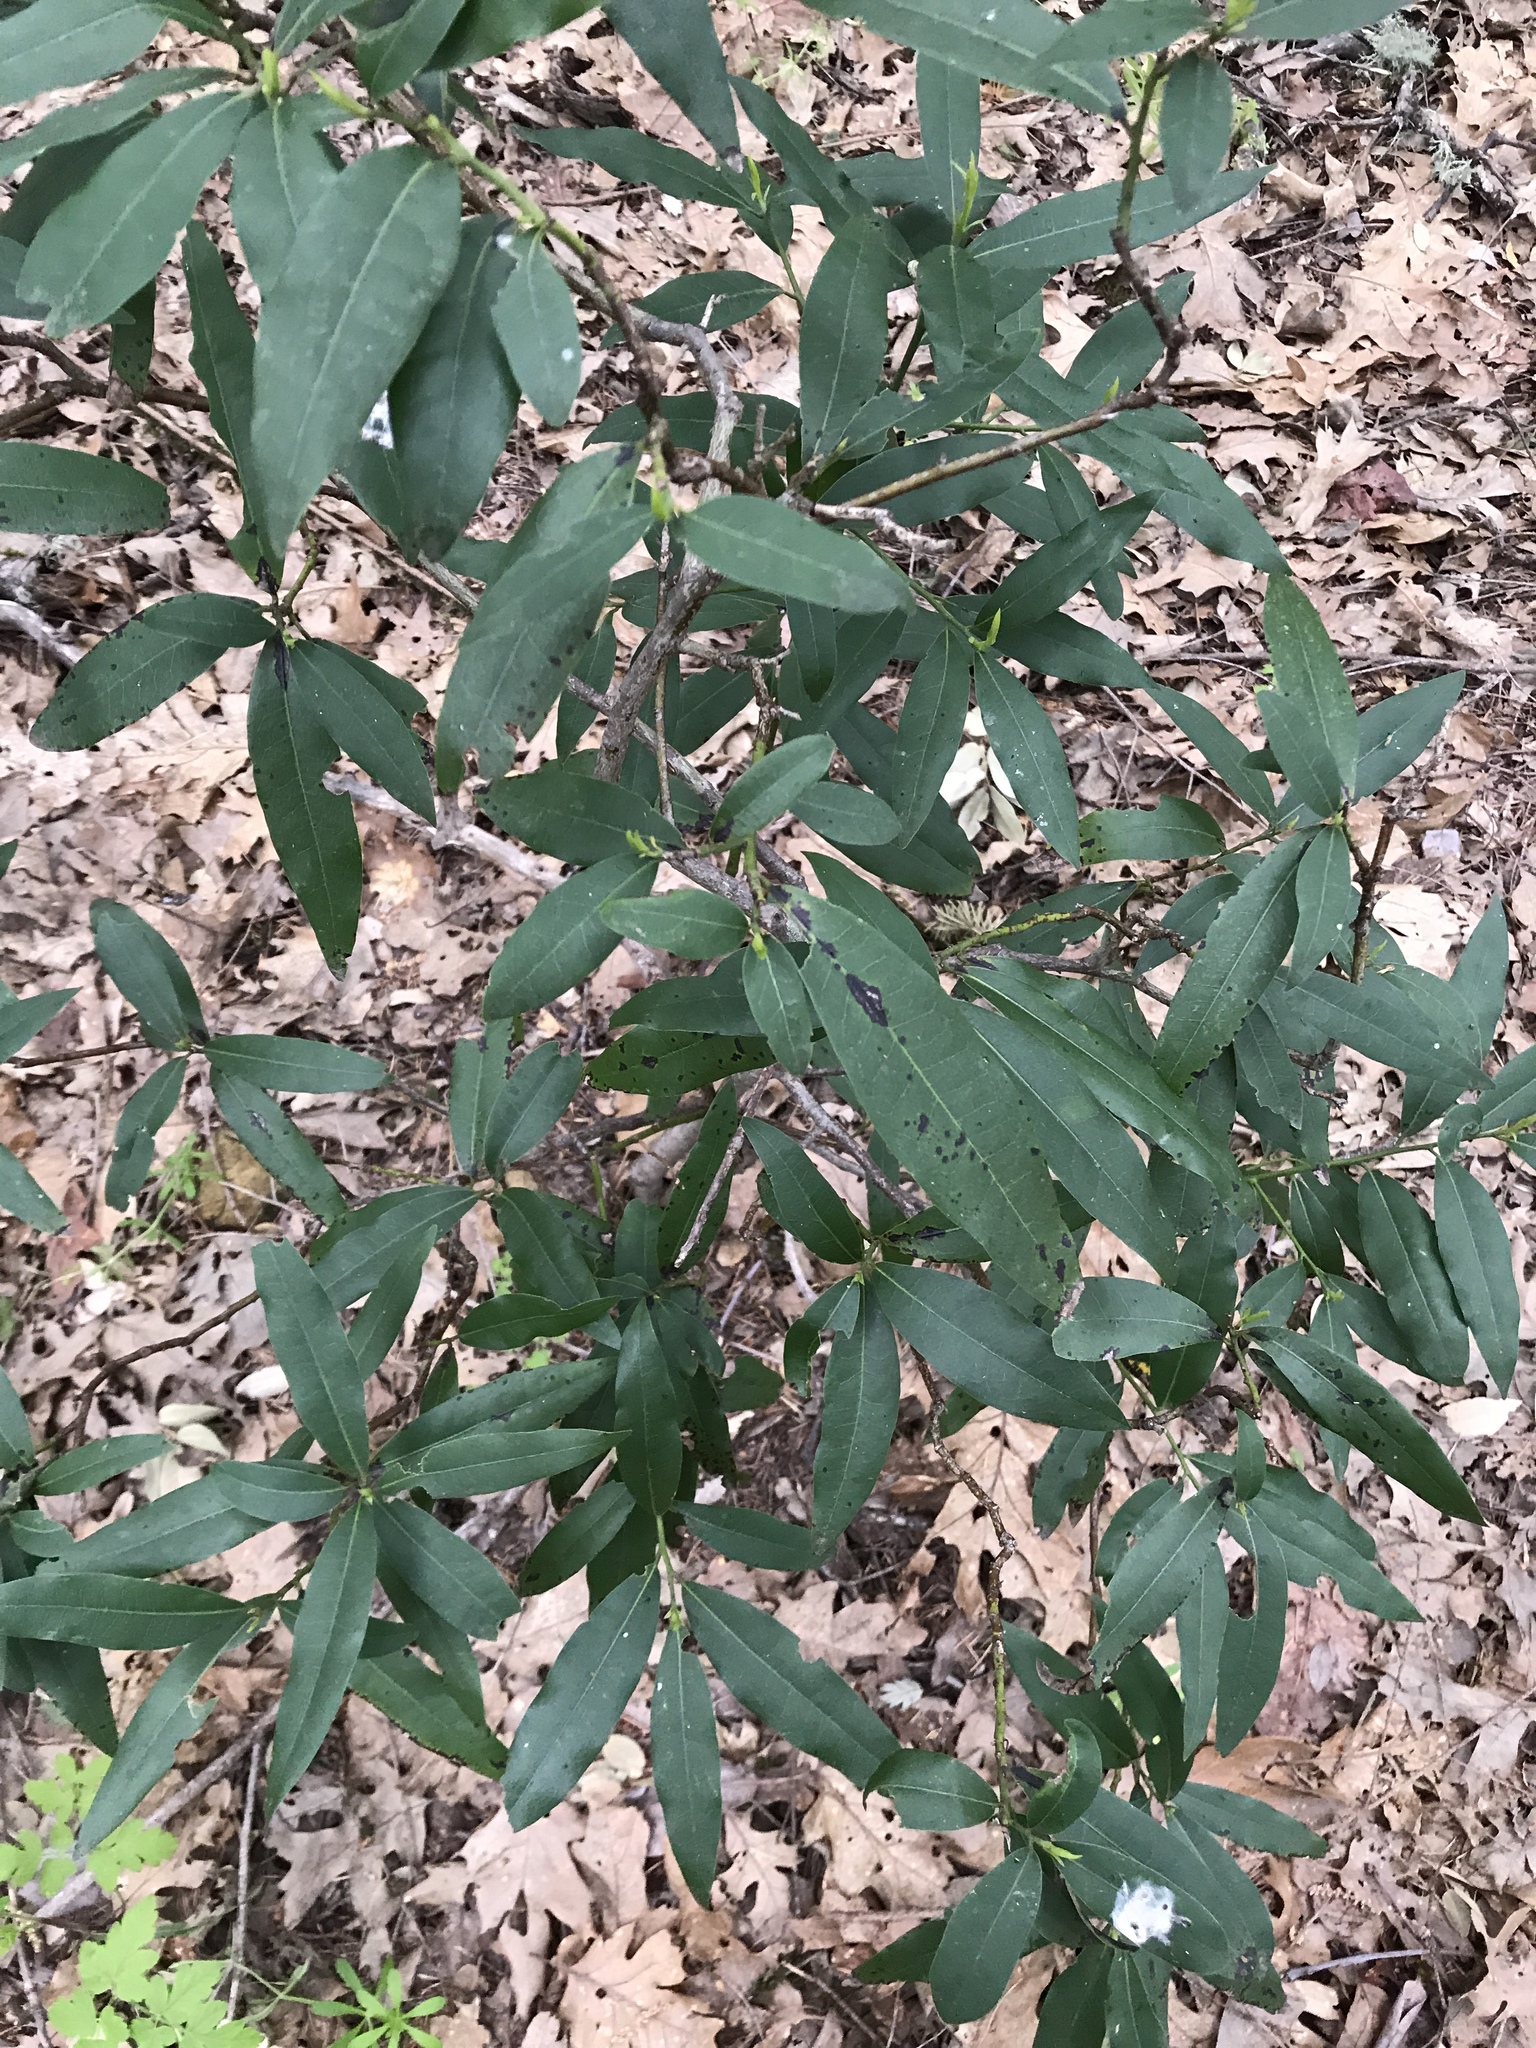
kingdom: Plantae
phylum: Tracheophyta
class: Magnoliopsida
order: Laurales
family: Lauraceae
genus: Umbellularia
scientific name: Umbellularia californica
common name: California bay
